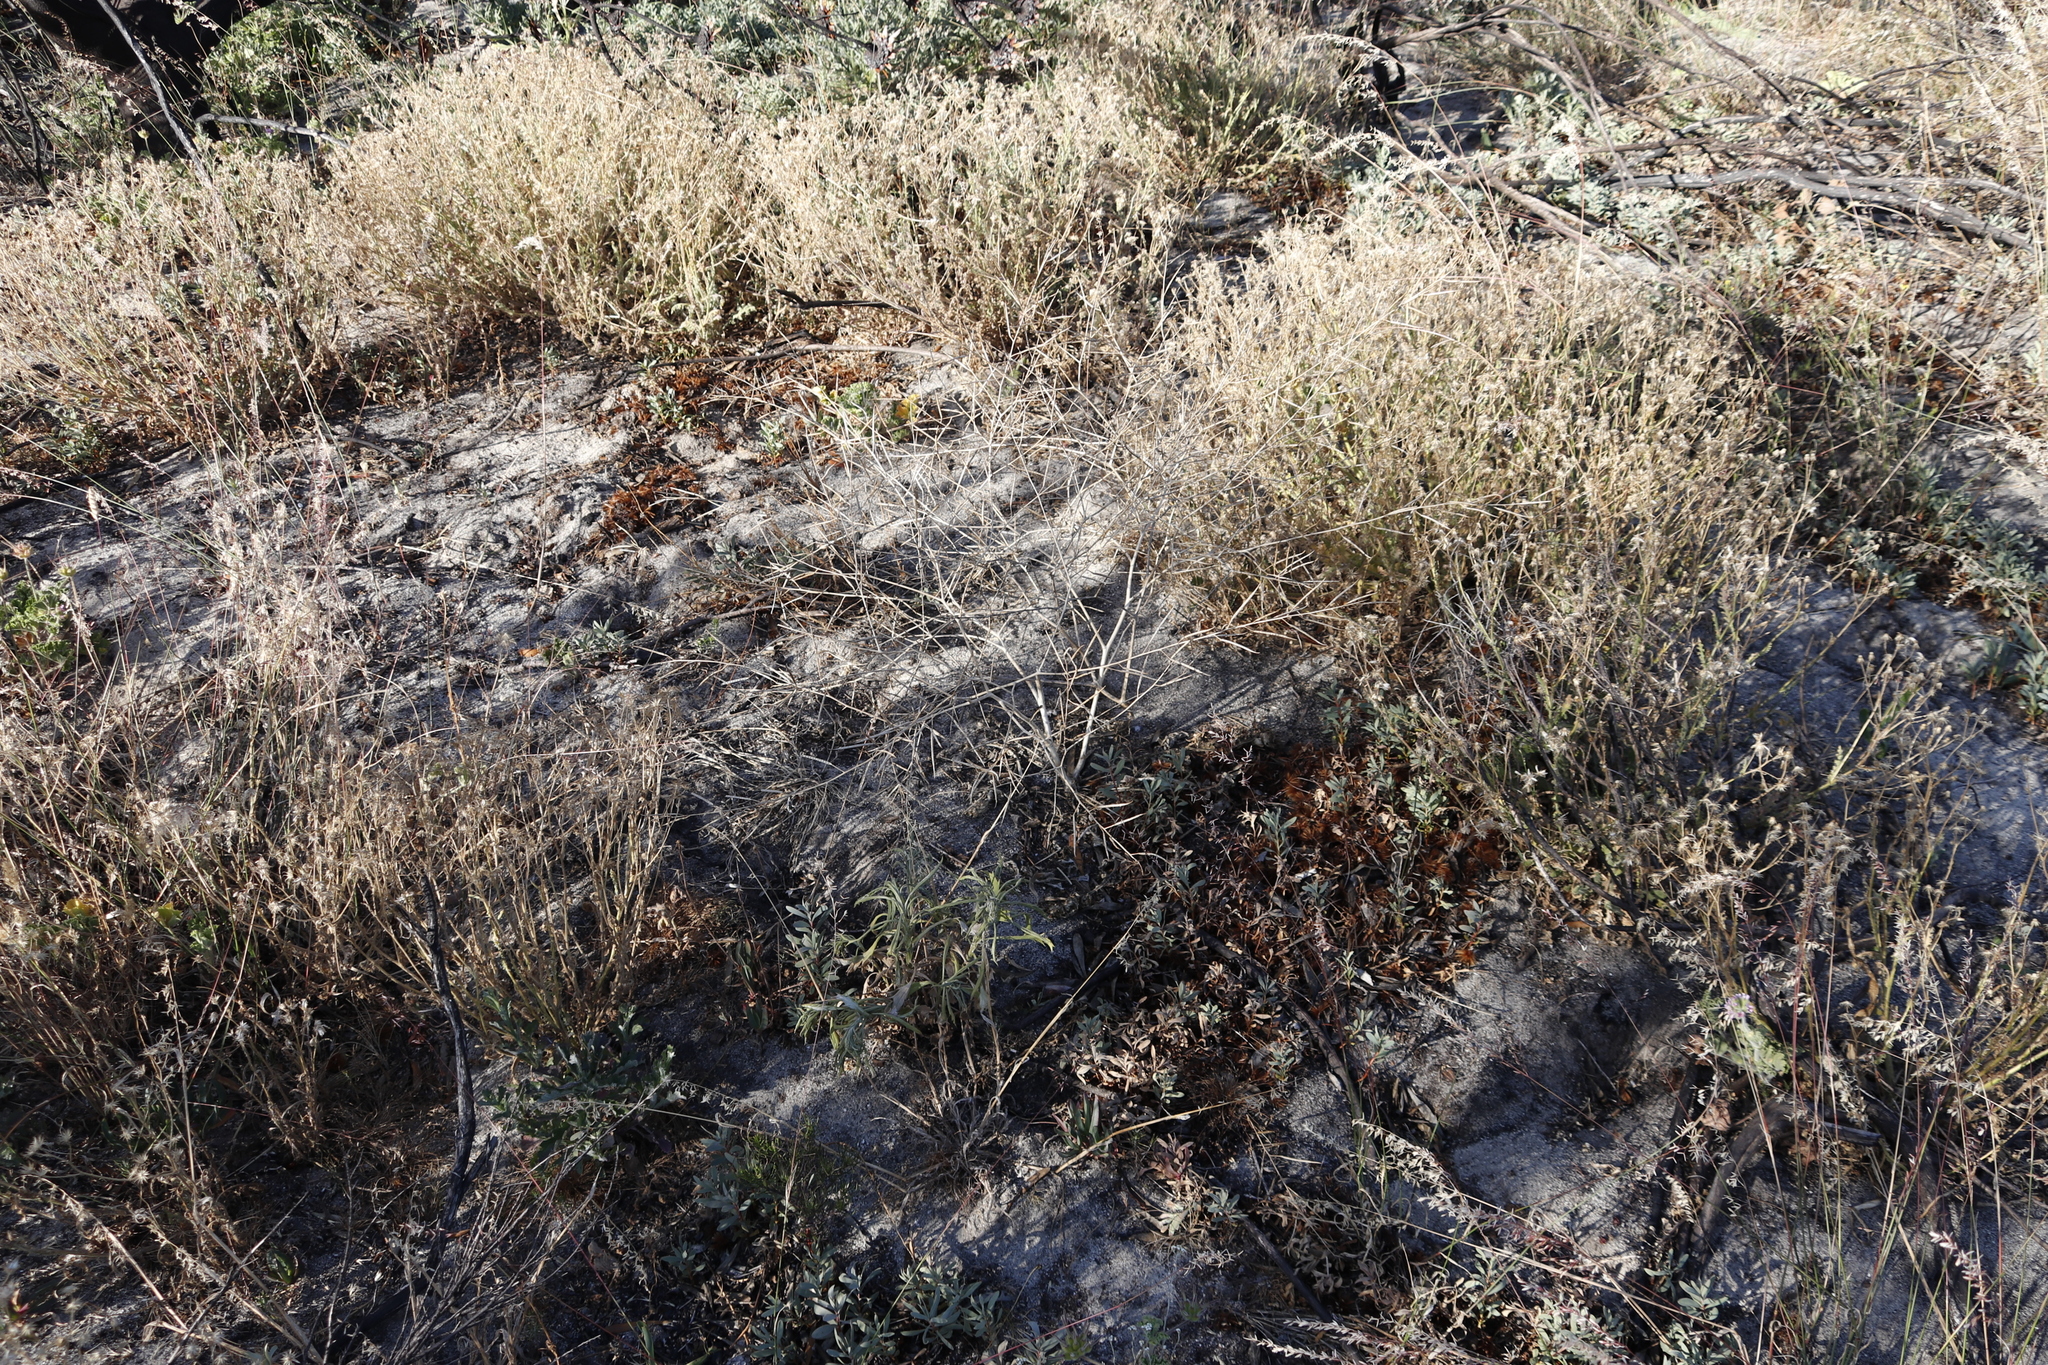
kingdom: Plantae
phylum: Tracheophyta
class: Magnoliopsida
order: Brassicales
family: Brassicaceae
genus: Brassica
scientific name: Brassica tournefortii
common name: Pale cabbage
